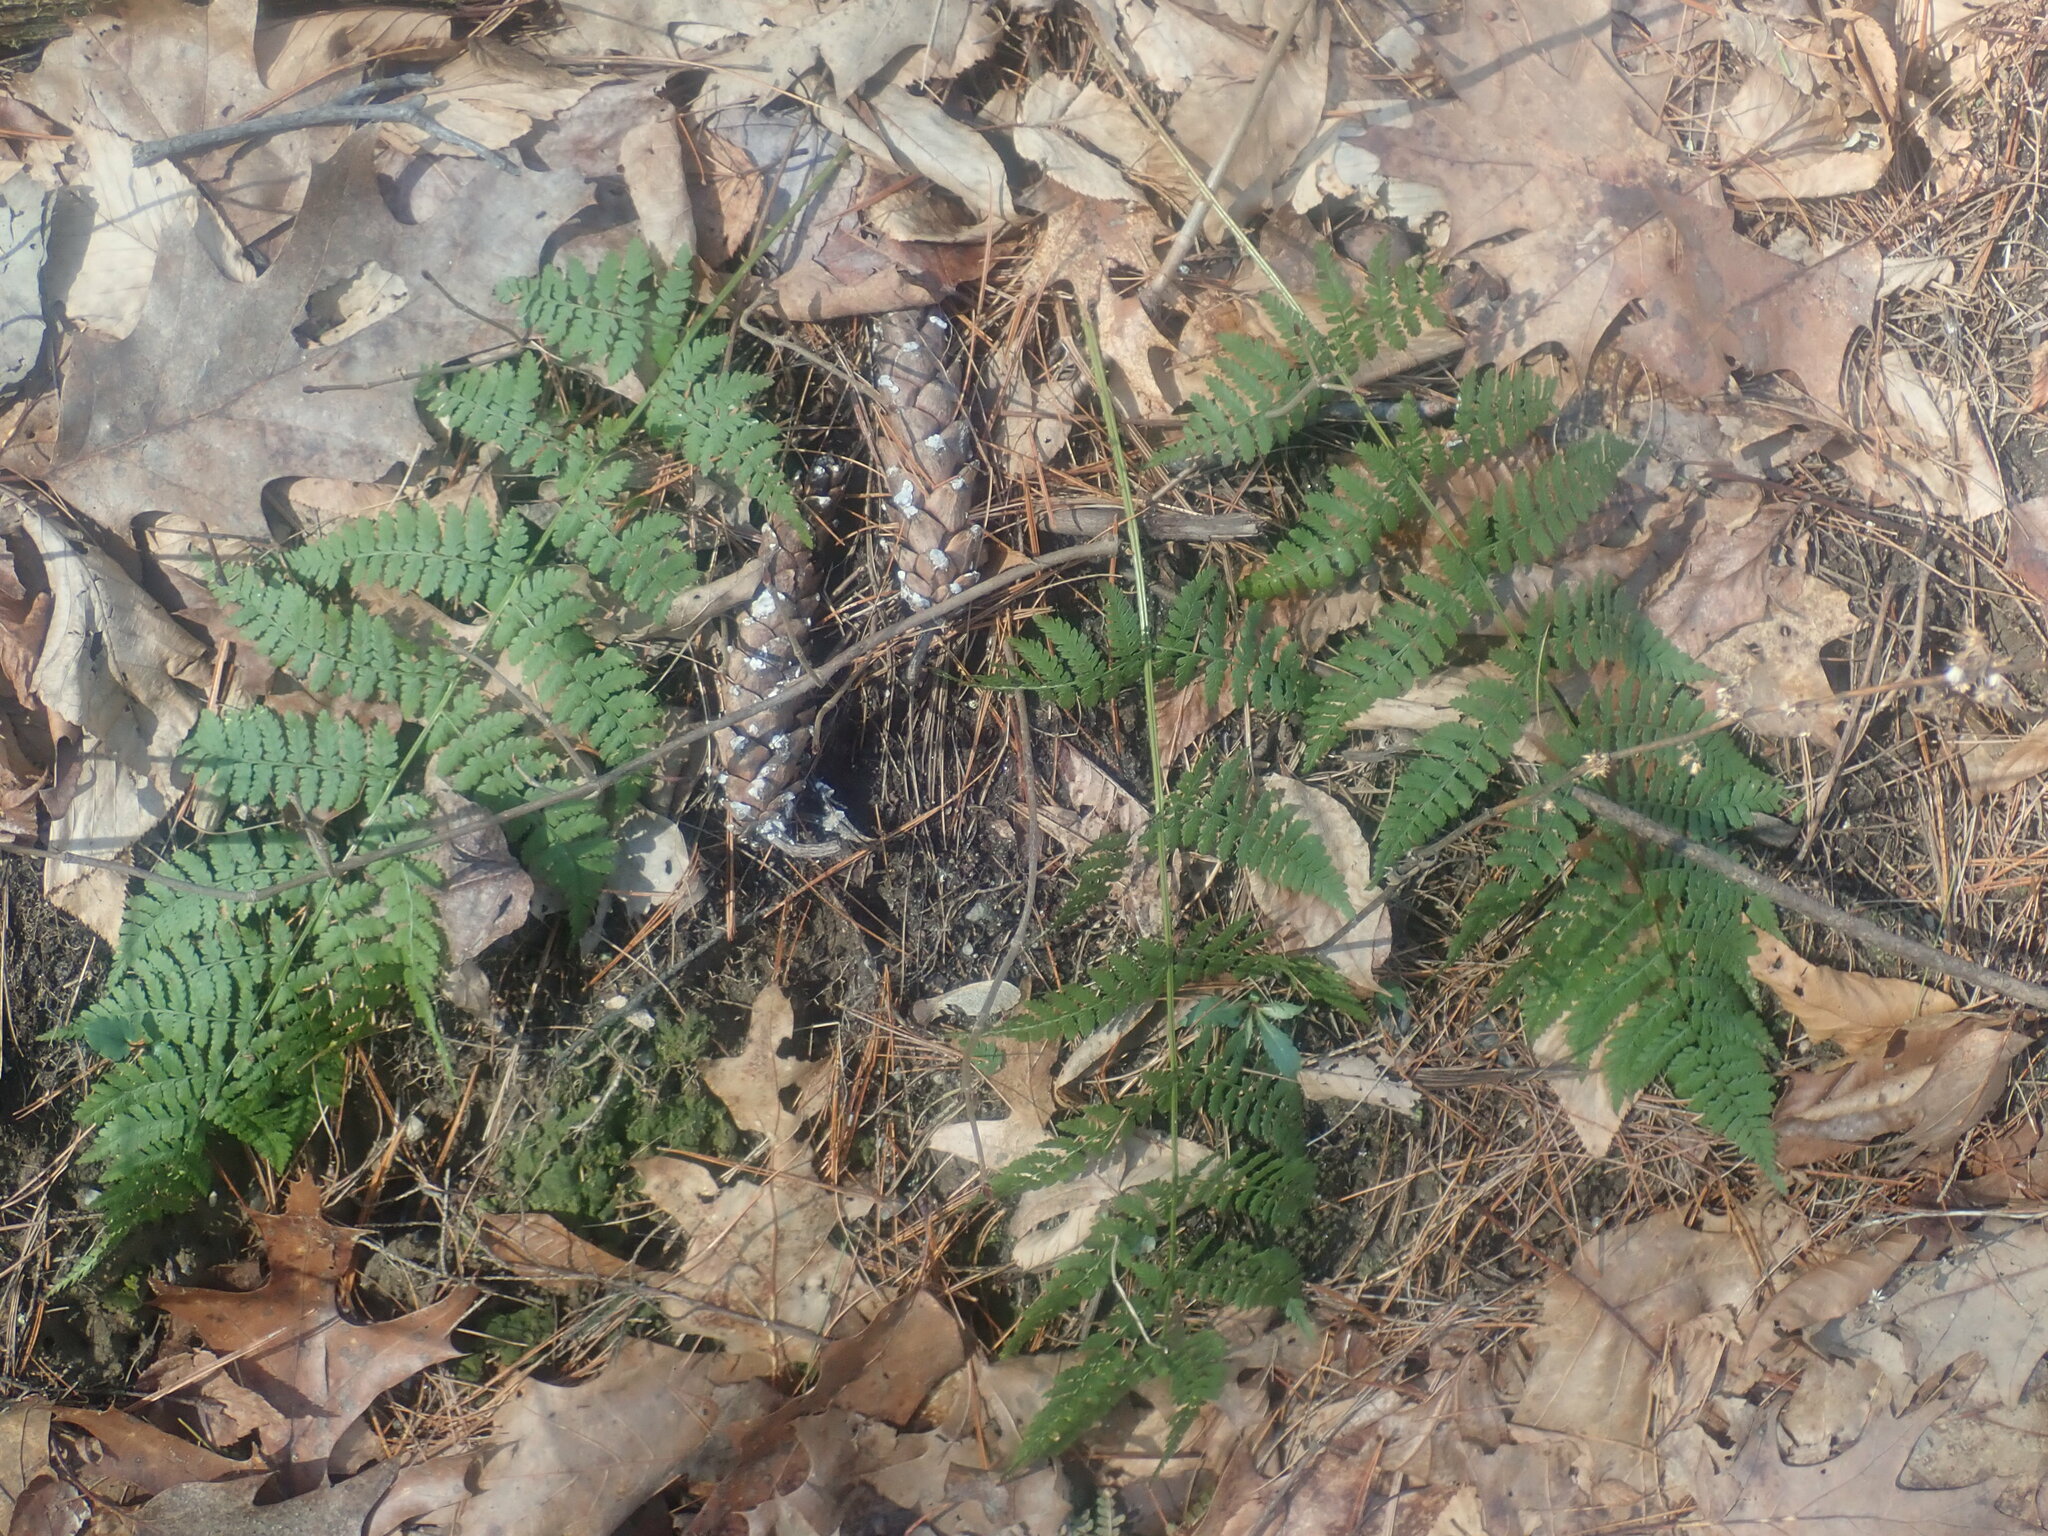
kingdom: Plantae
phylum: Tracheophyta
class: Polypodiopsida
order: Polypodiales
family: Dryopteridaceae
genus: Dryopteris
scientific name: Dryopteris intermedia
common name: Evergreen wood fern
